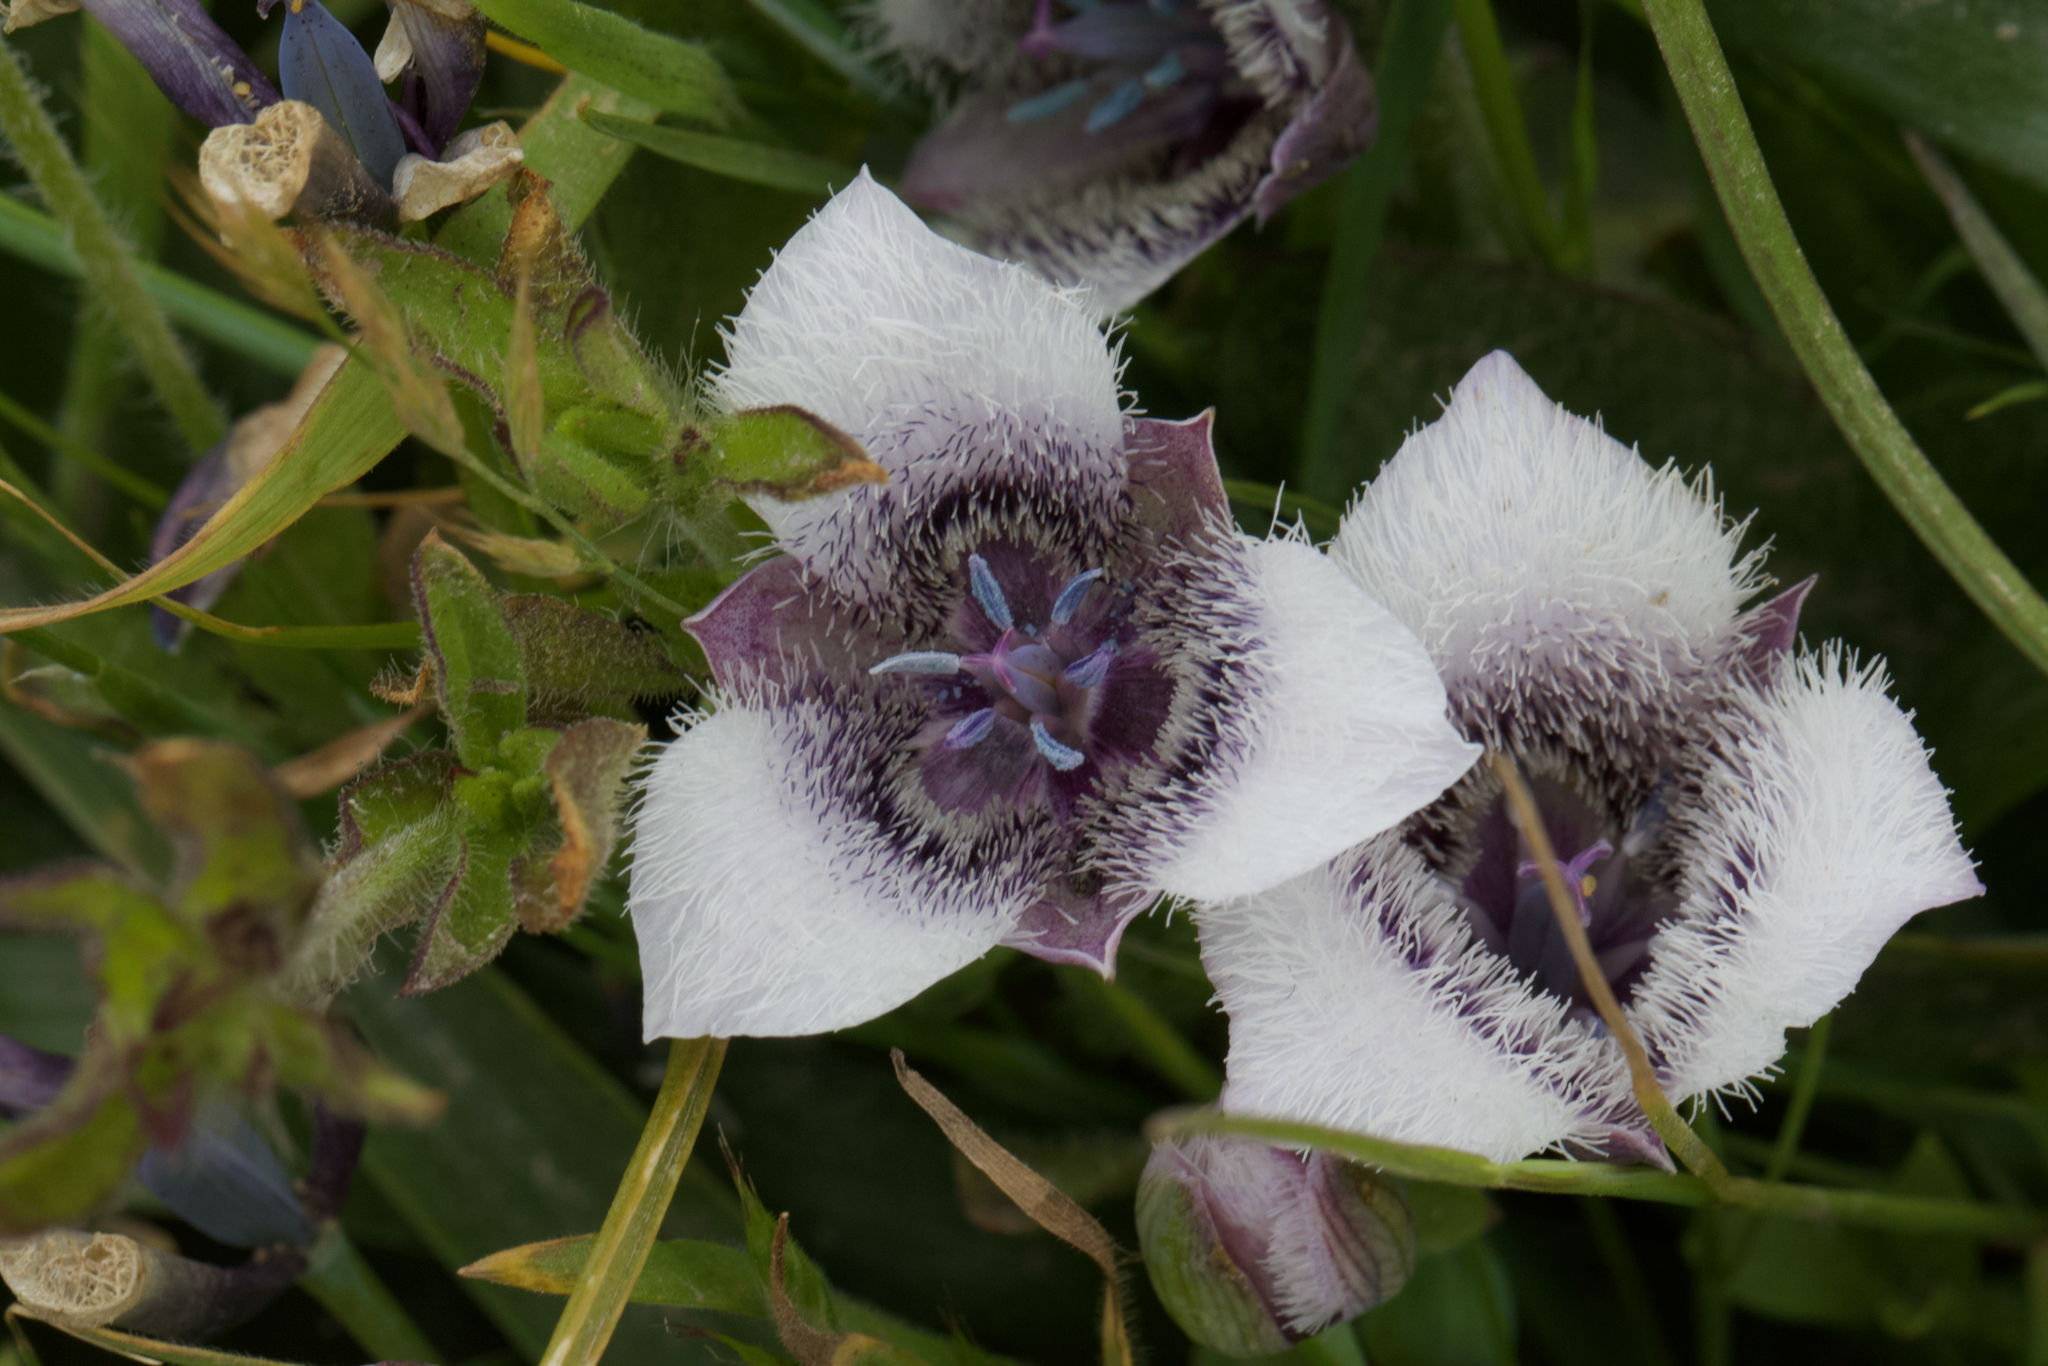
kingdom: Plantae
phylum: Tracheophyta
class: Liliopsida
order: Liliales
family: Liliaceae
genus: Calochortus
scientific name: Calochortus tolmiei
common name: Pussy-ears
